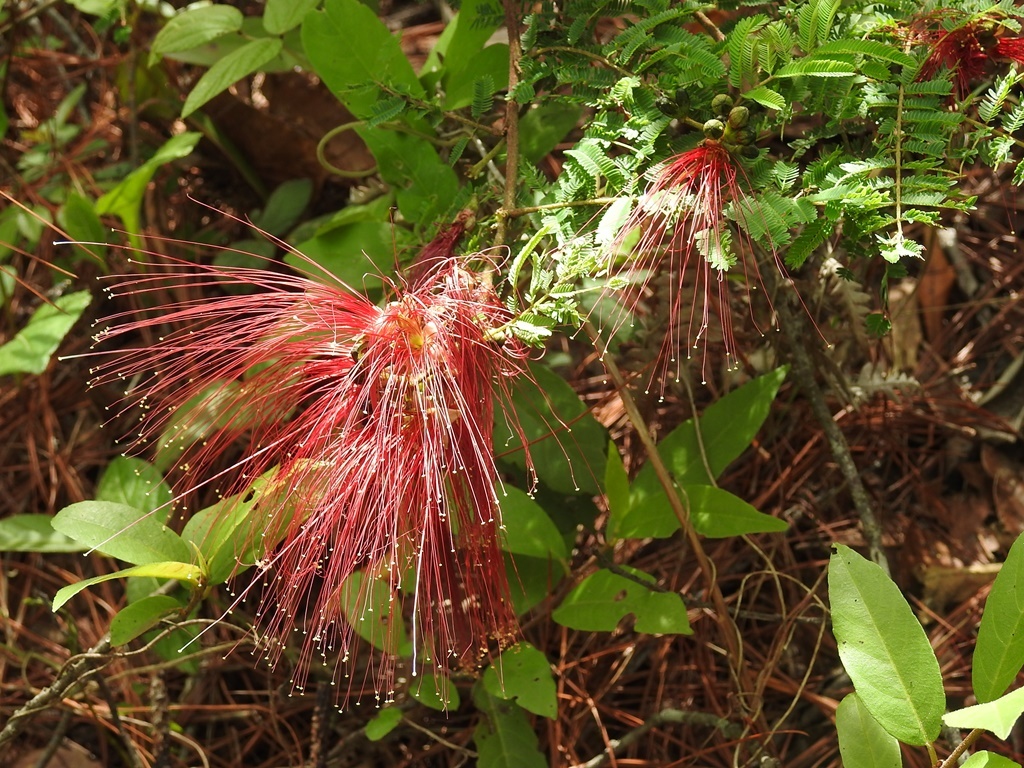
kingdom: Plantae
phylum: Tracheophyta
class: Magnoliopsida
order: Fabales
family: Fabaceae
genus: Calliandra
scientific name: Calliandra houstoniana
